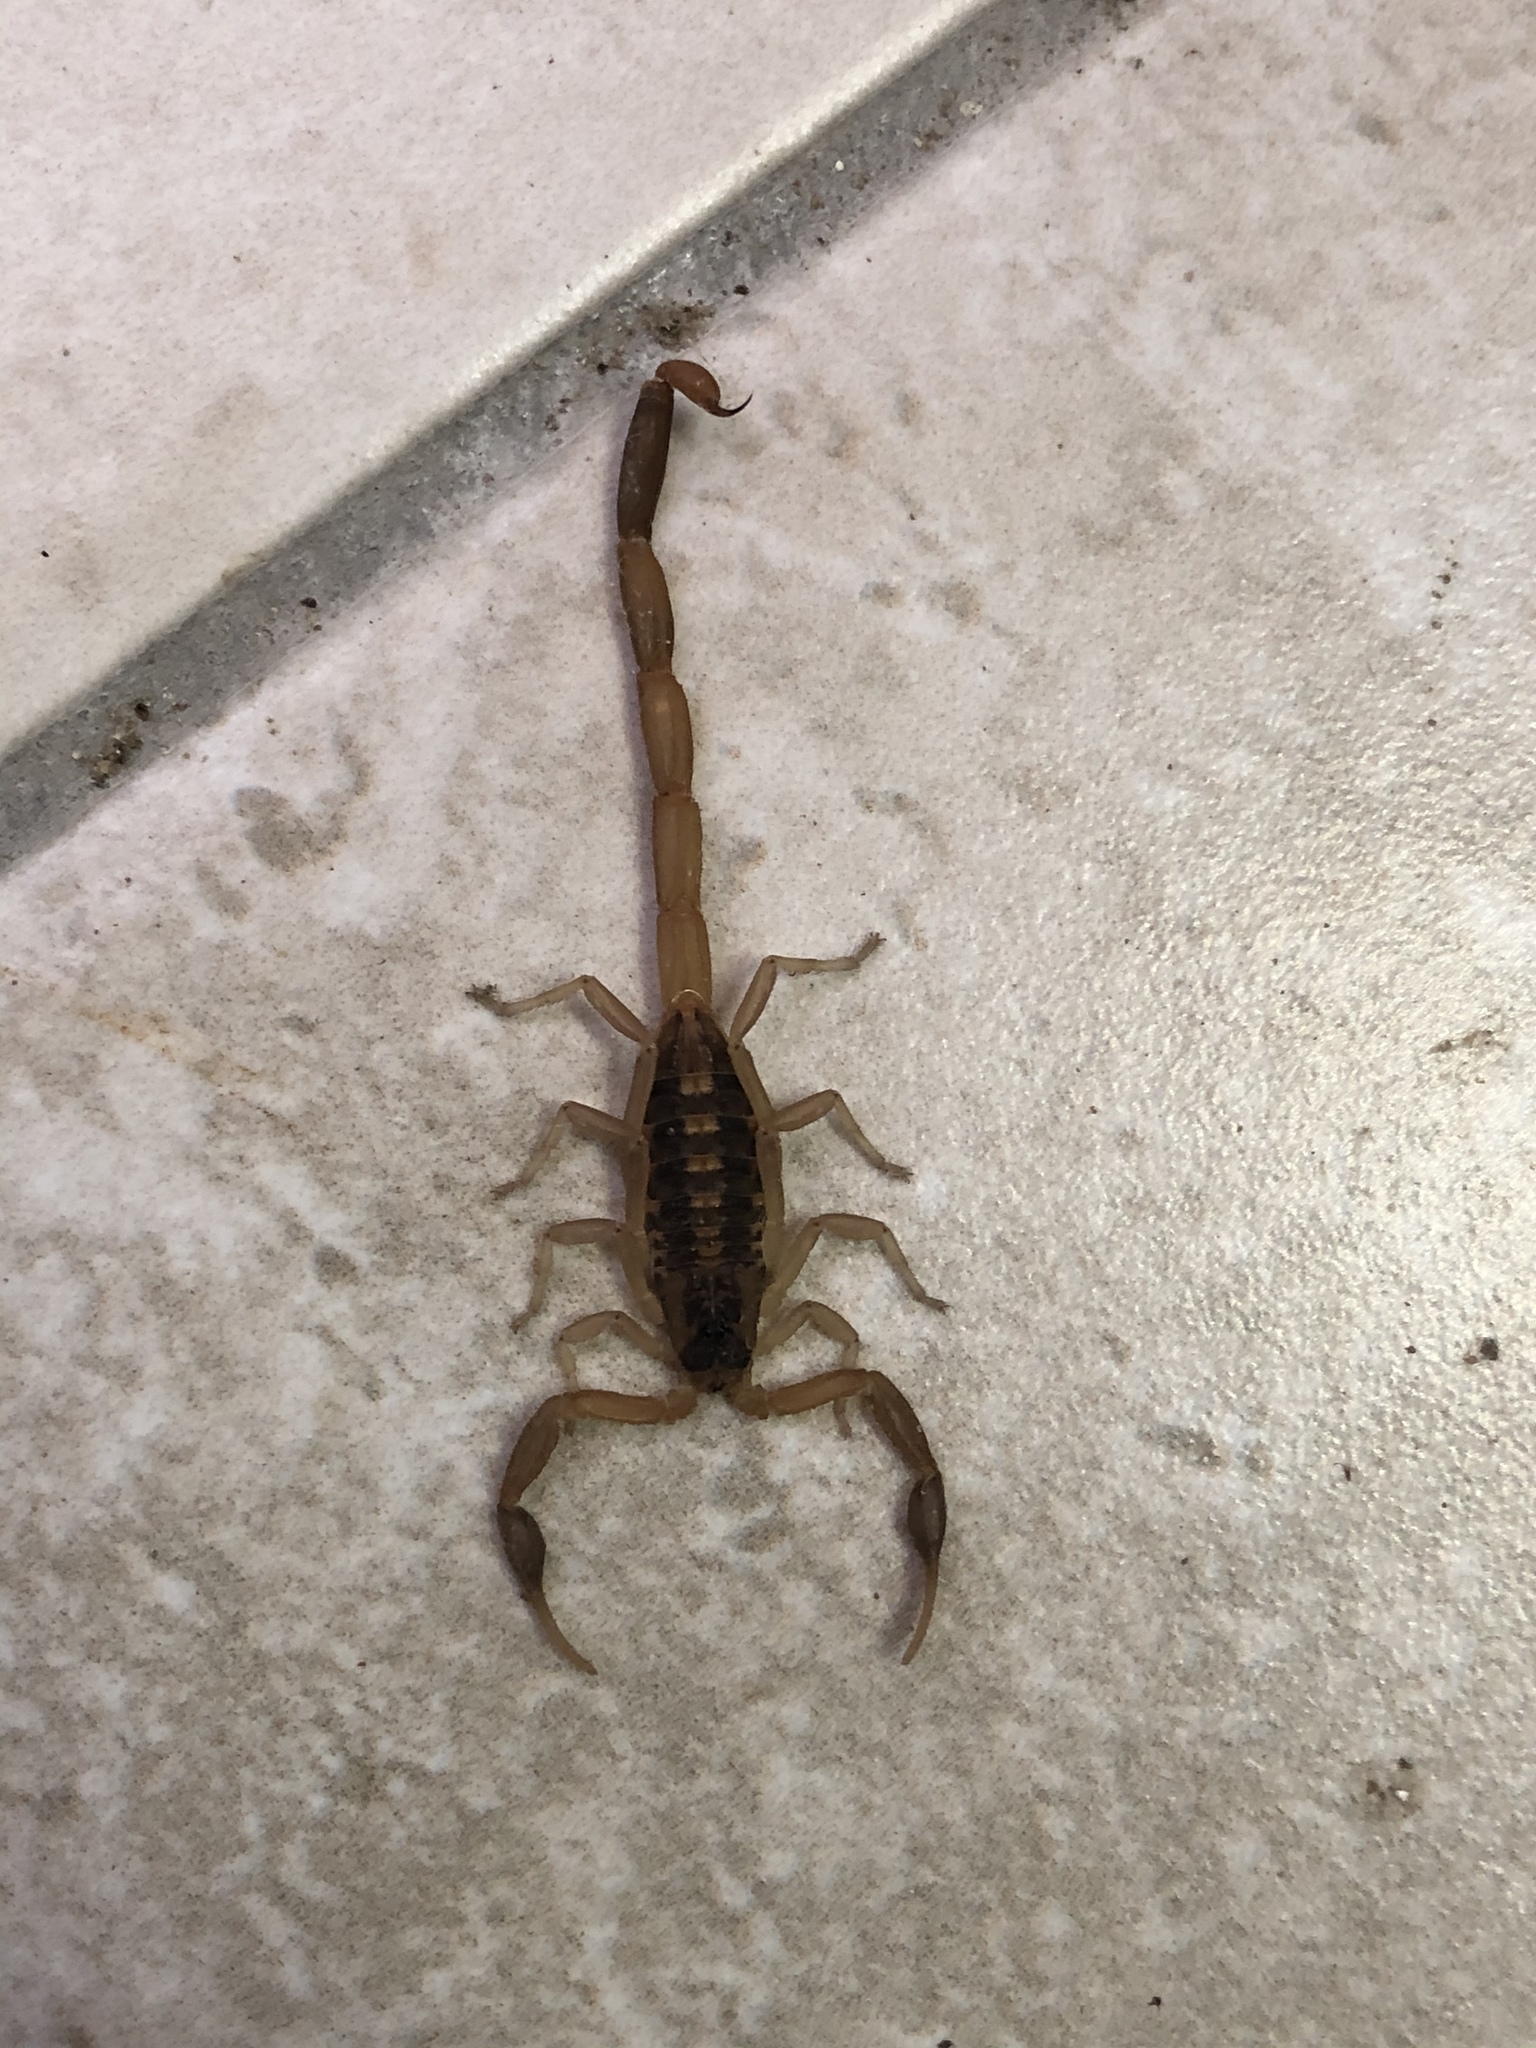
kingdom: Animalia
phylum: Arthropoda
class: Arachnida
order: Scorpiones
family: Buthidae
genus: Centruroides
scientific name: Centruroides vittatus
